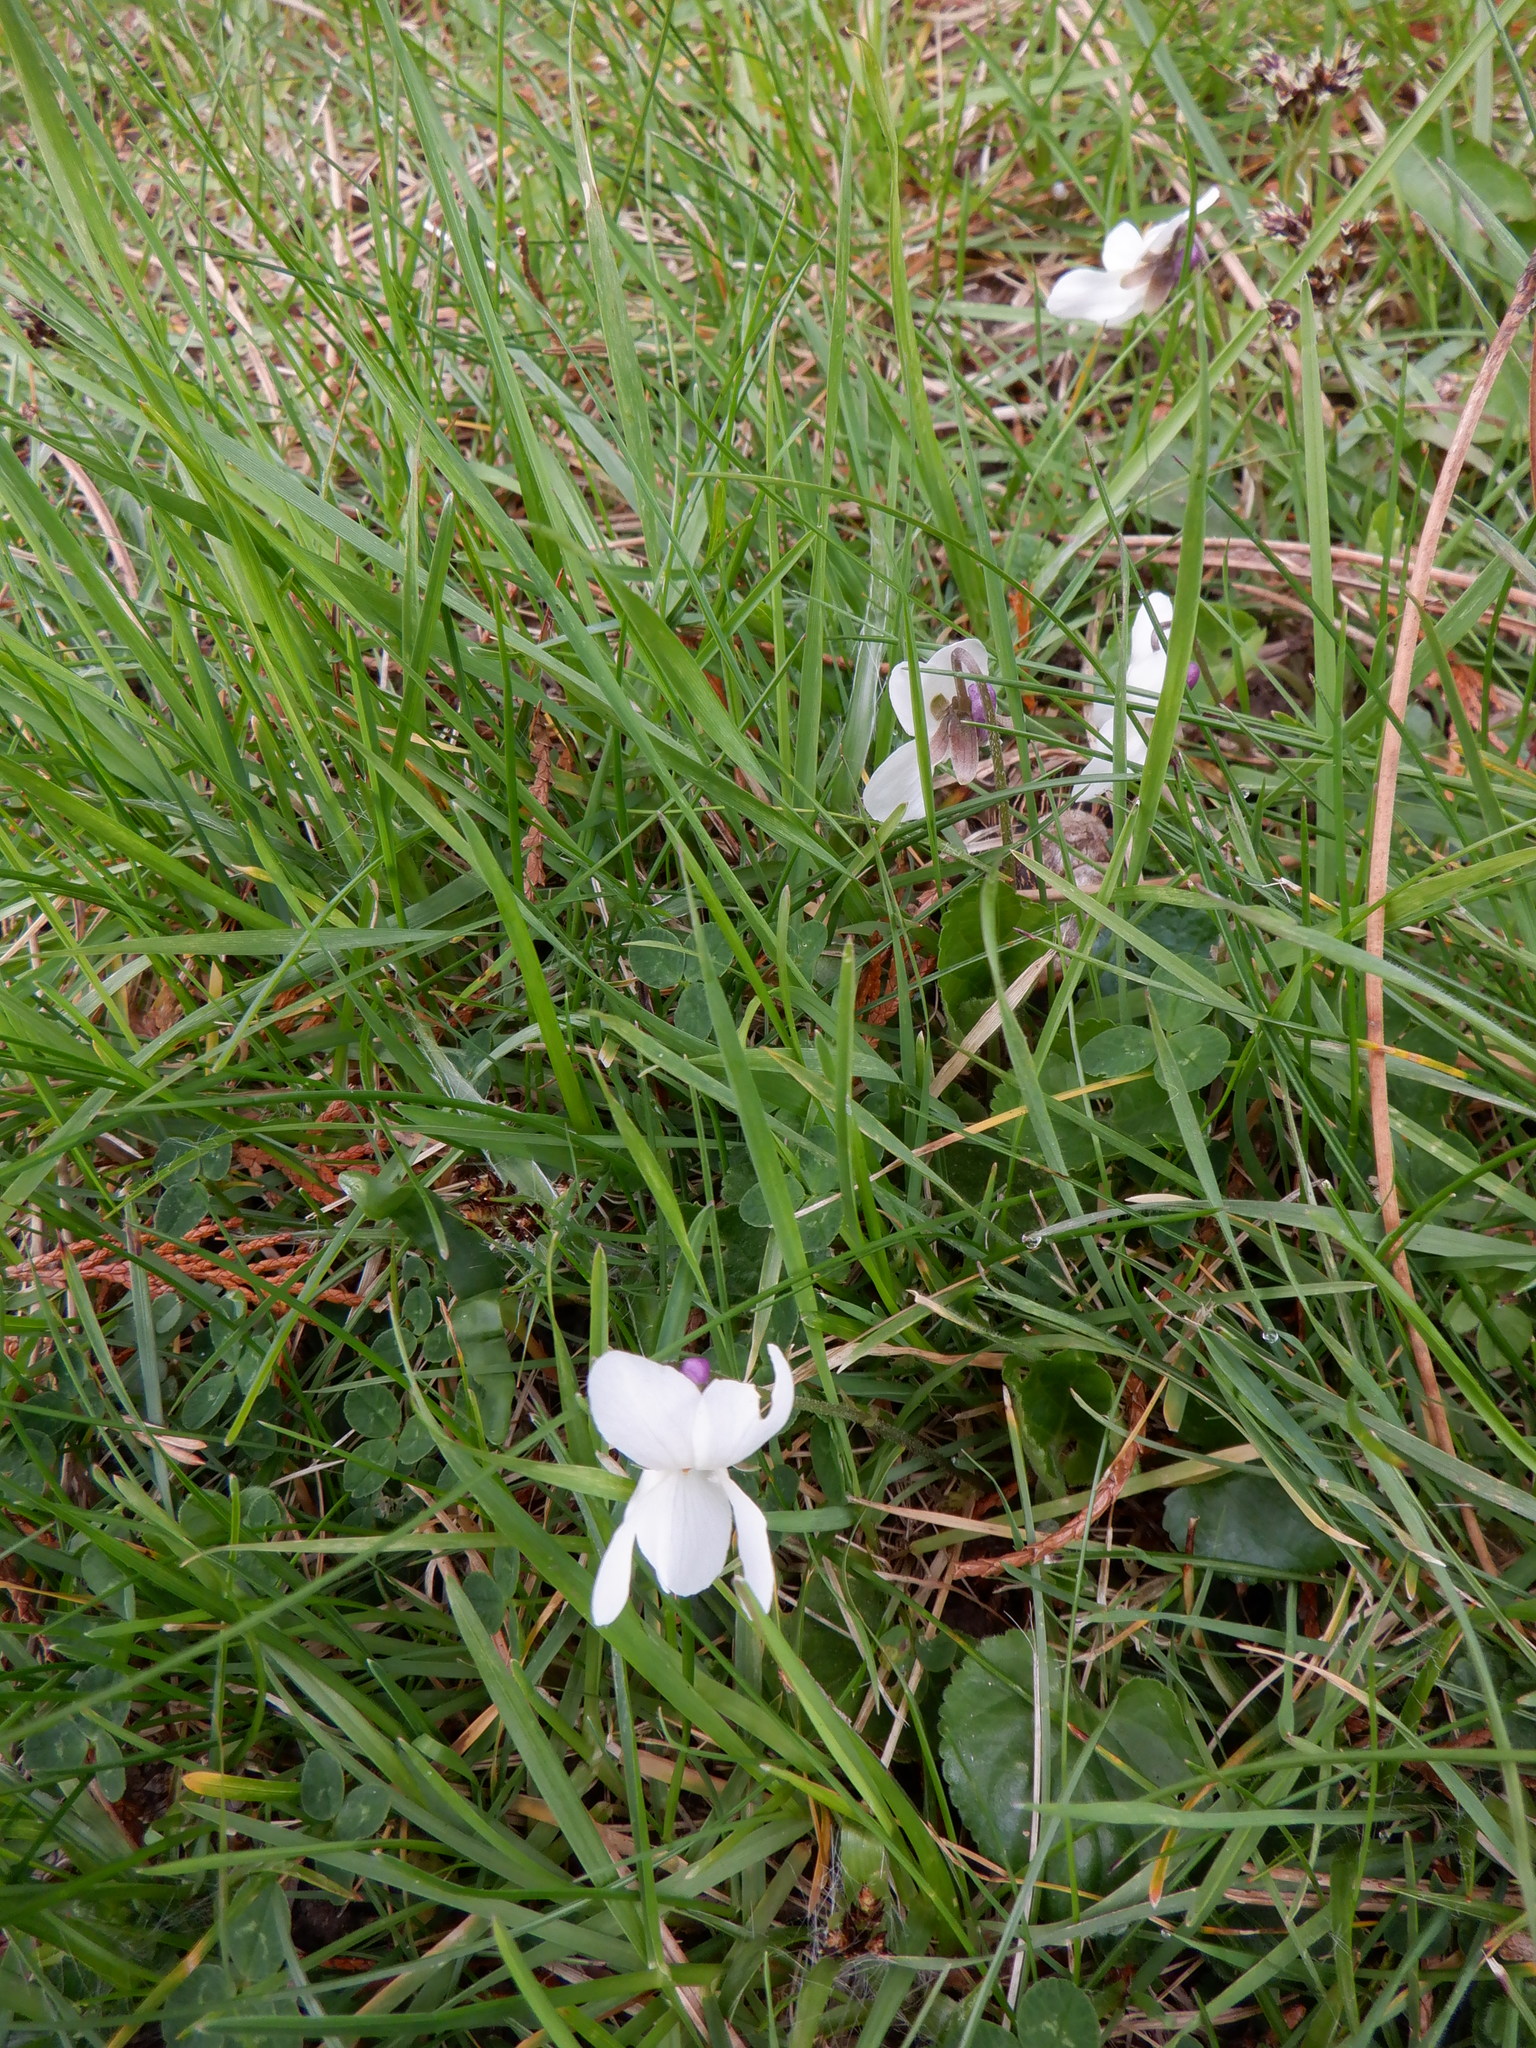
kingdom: Plantae
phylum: Tracheophyta
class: Magnoliopsida
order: Malpighiales
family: Violaceae
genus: Viola
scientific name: Viola odorata
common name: Sweet violet
